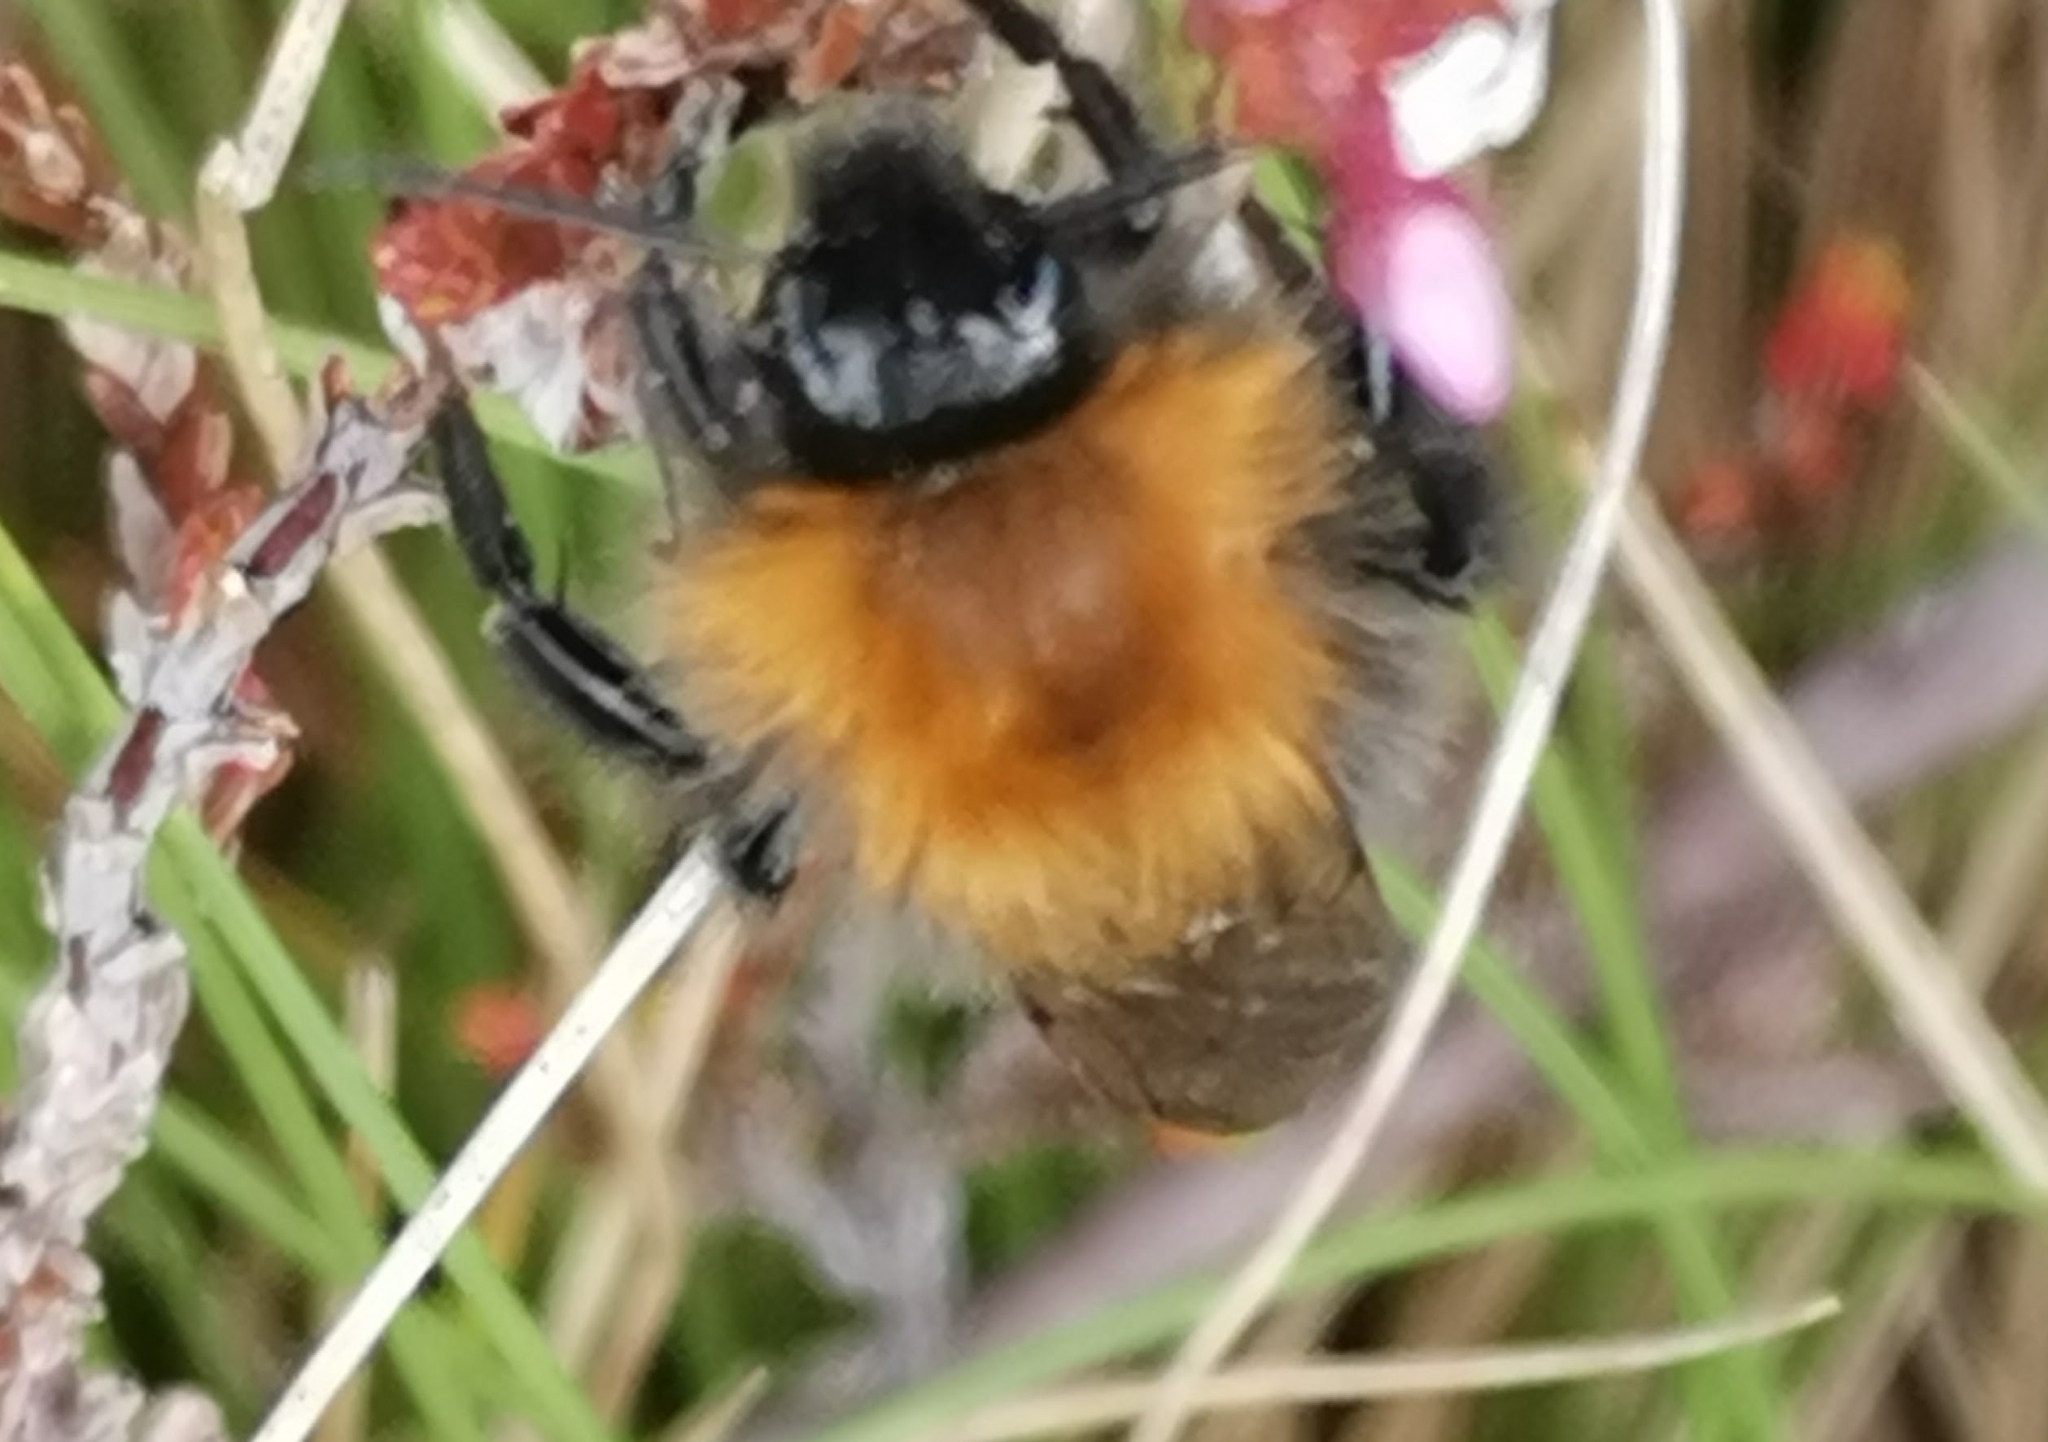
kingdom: Animalia
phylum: Arthropoda
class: Insecta
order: Hymenoptera
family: Apidae
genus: Bombus
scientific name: Bombus pascuorum
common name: Common carder bee
